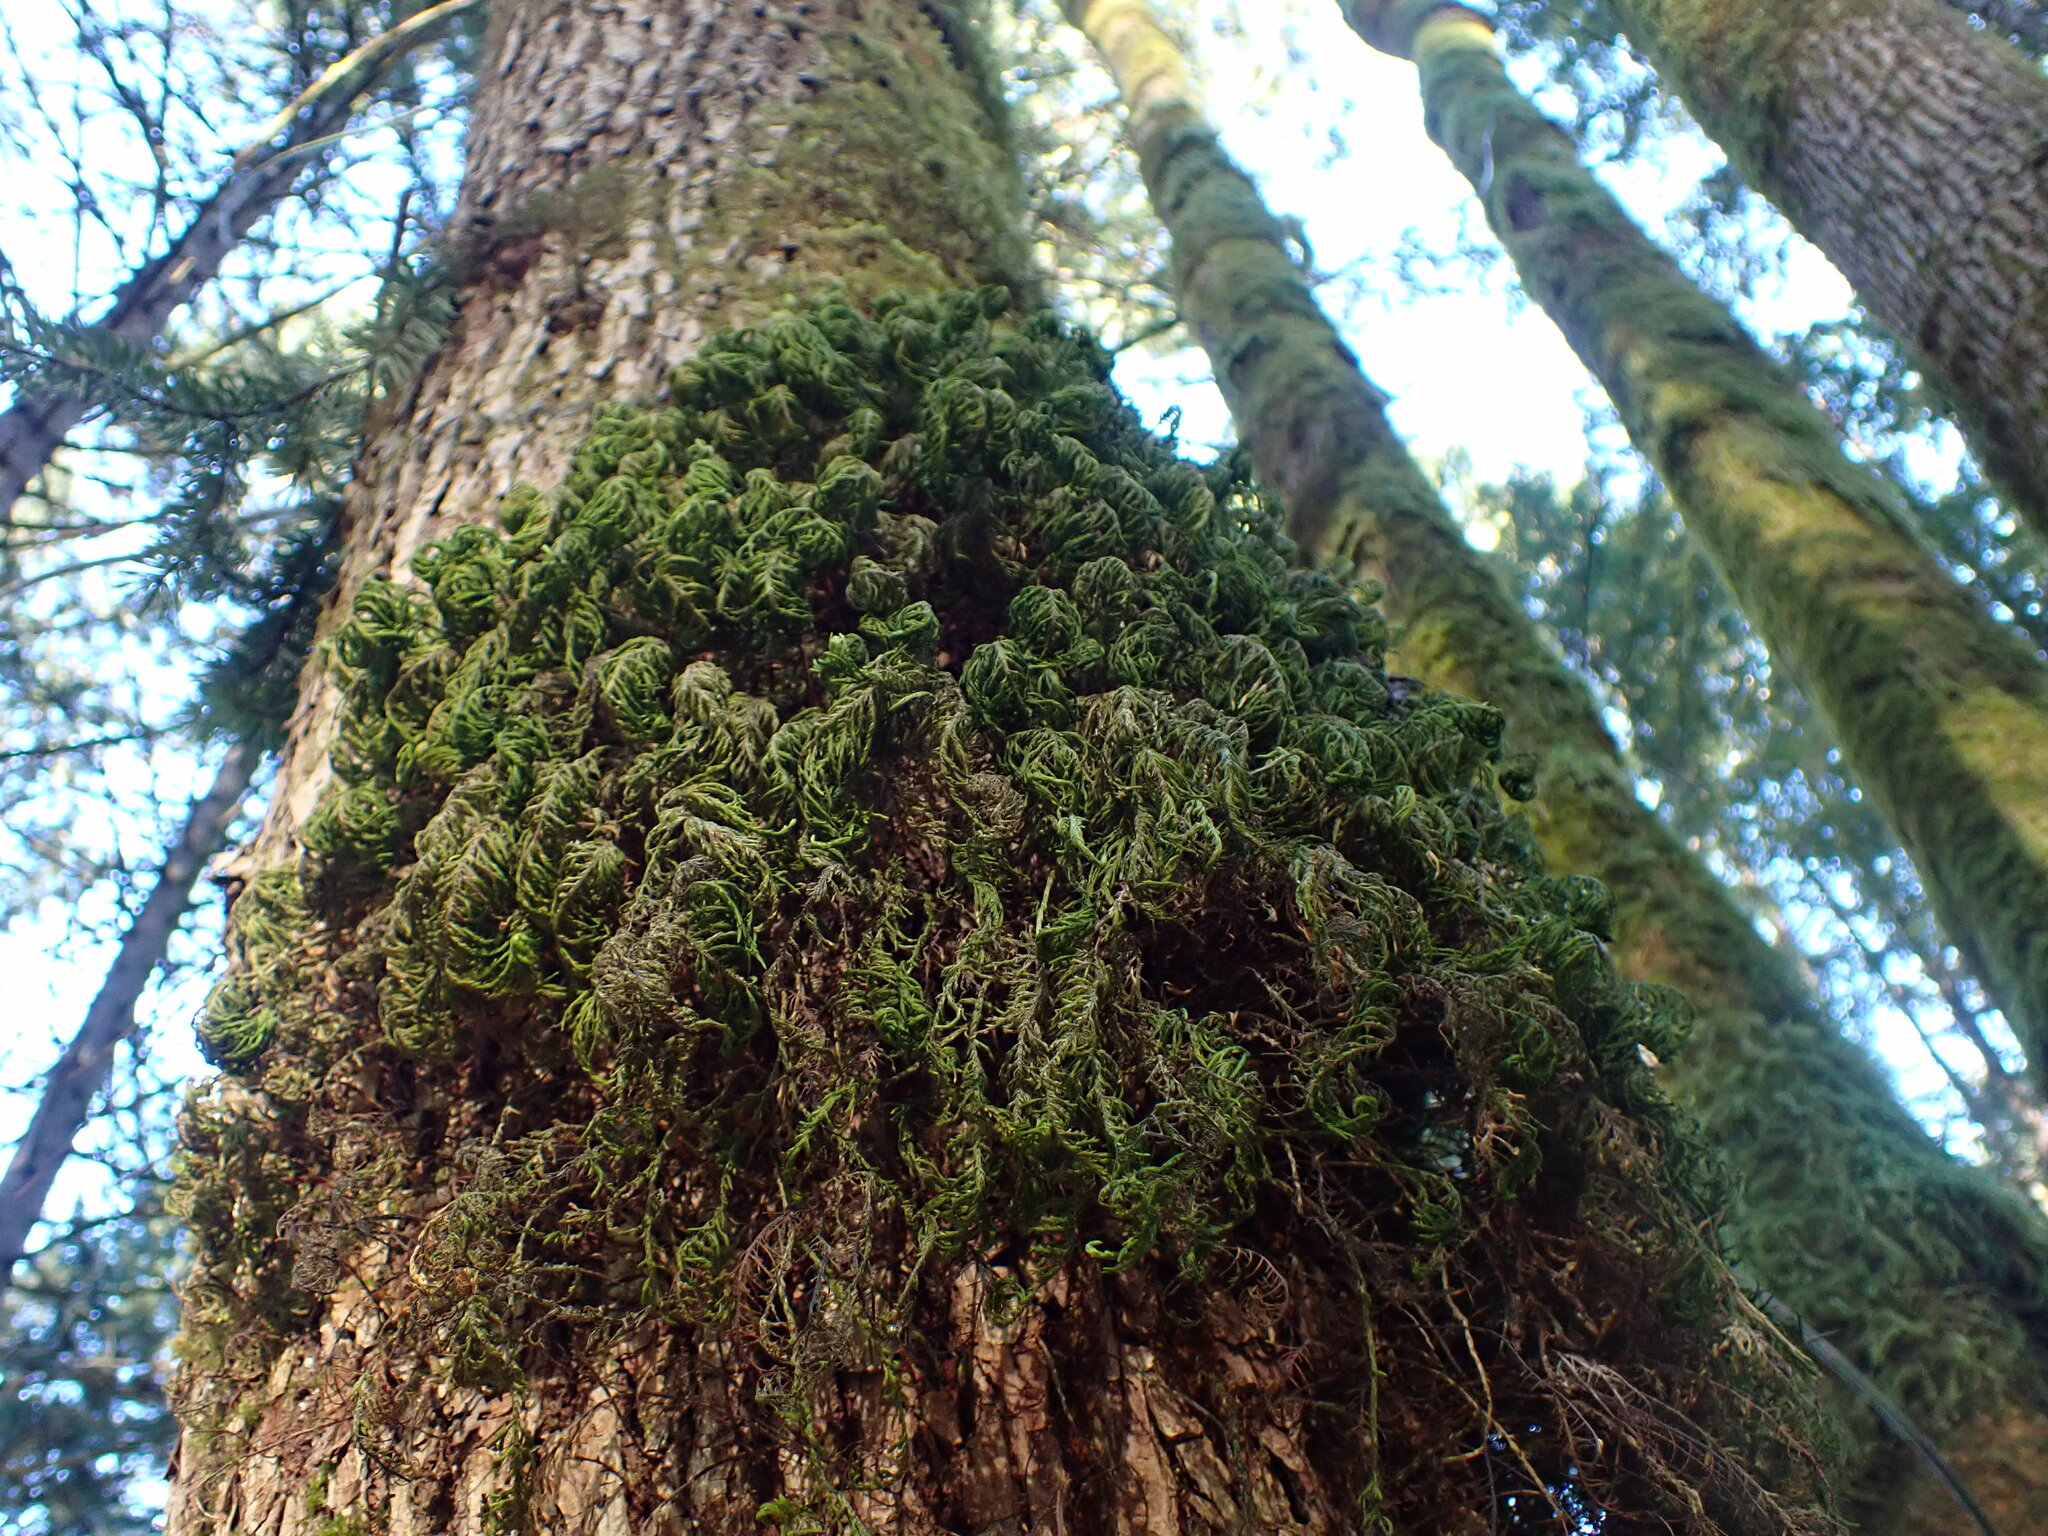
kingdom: Plantae
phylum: Bryophyta
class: Bryopsida
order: Hypnales
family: Cryphaeaceae
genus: Dendroalsia
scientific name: Dendroalsia abietina
